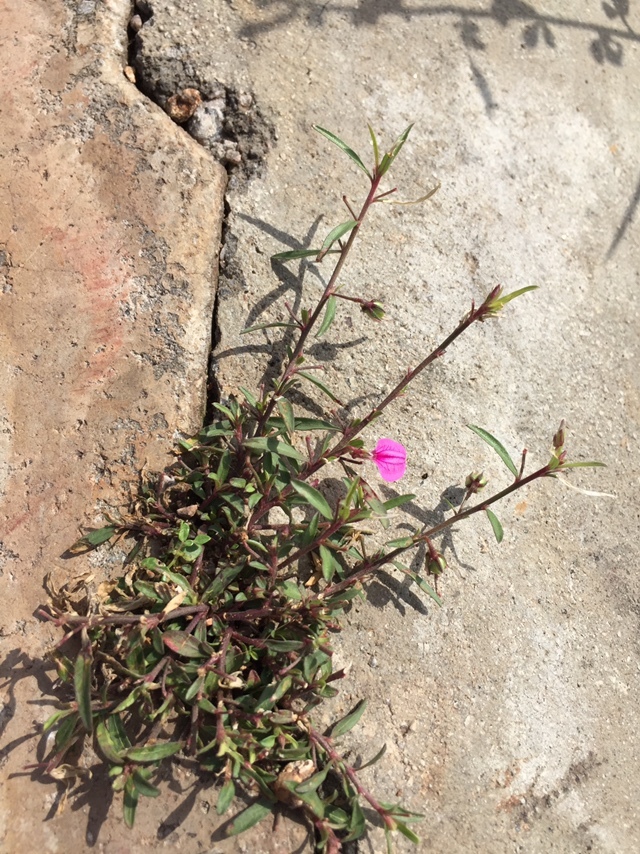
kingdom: Plantae
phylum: Tracheophyta
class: Magnoliopsida
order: Malpighiales
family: Violaceae
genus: Pigea
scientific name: Pigea enneasperma
